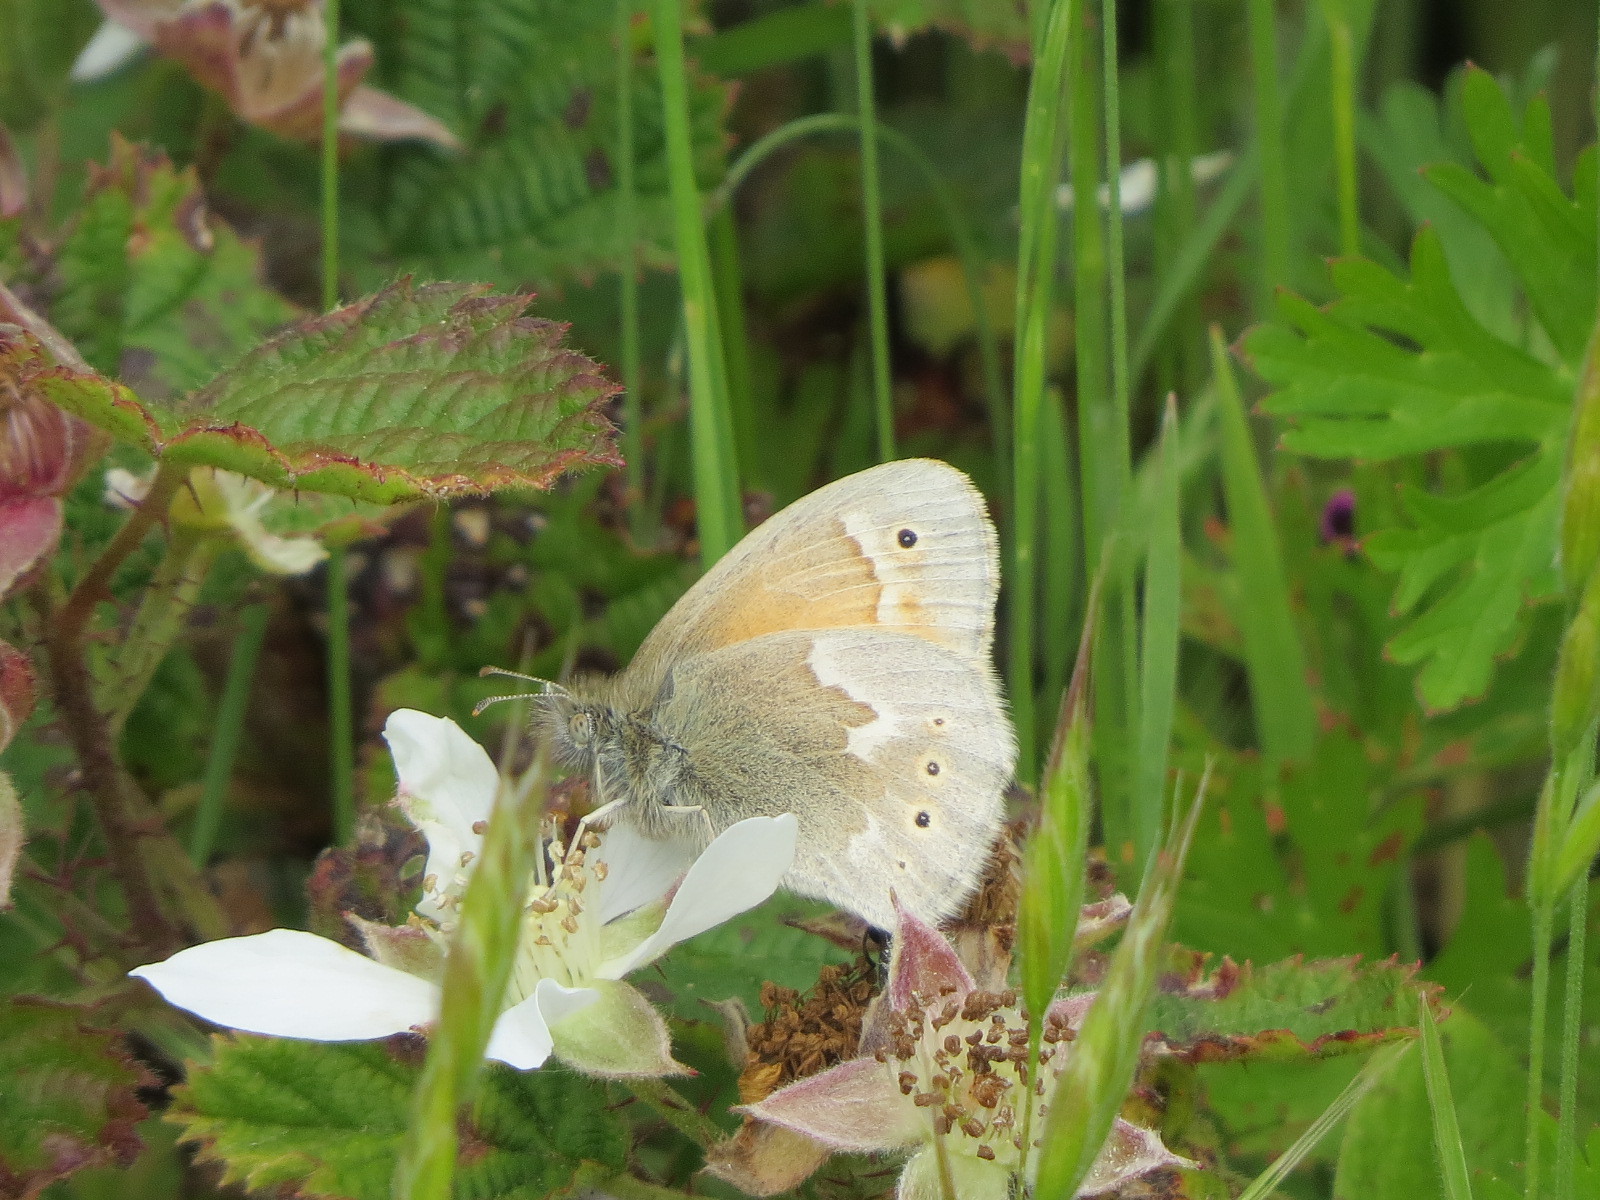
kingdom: Animalia
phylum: Arthropoda
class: Insecta
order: Lepidoptera
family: Nymphalidae
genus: Coenonympha
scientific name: Coenonympha california
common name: Common ringlet
